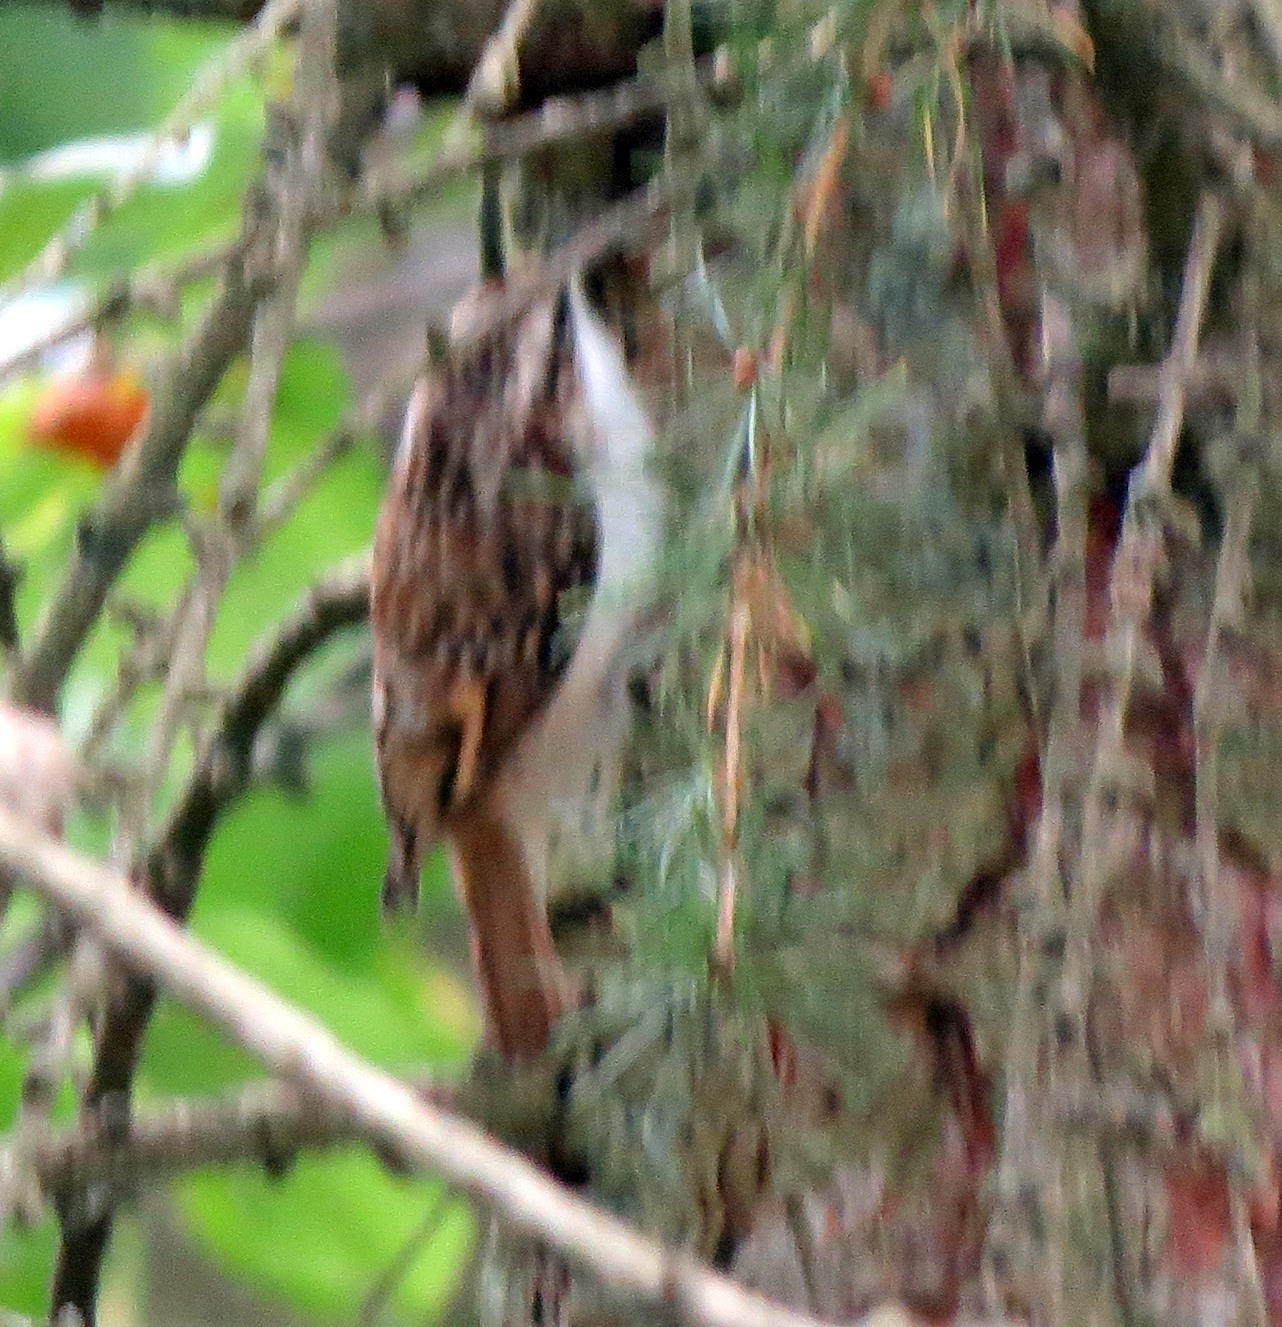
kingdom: Animalia
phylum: Chordata
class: Aves
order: Passeriformes
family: Certhiidae
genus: Certhia
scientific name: Certhia familiaris
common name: Eurasian treecreeper
